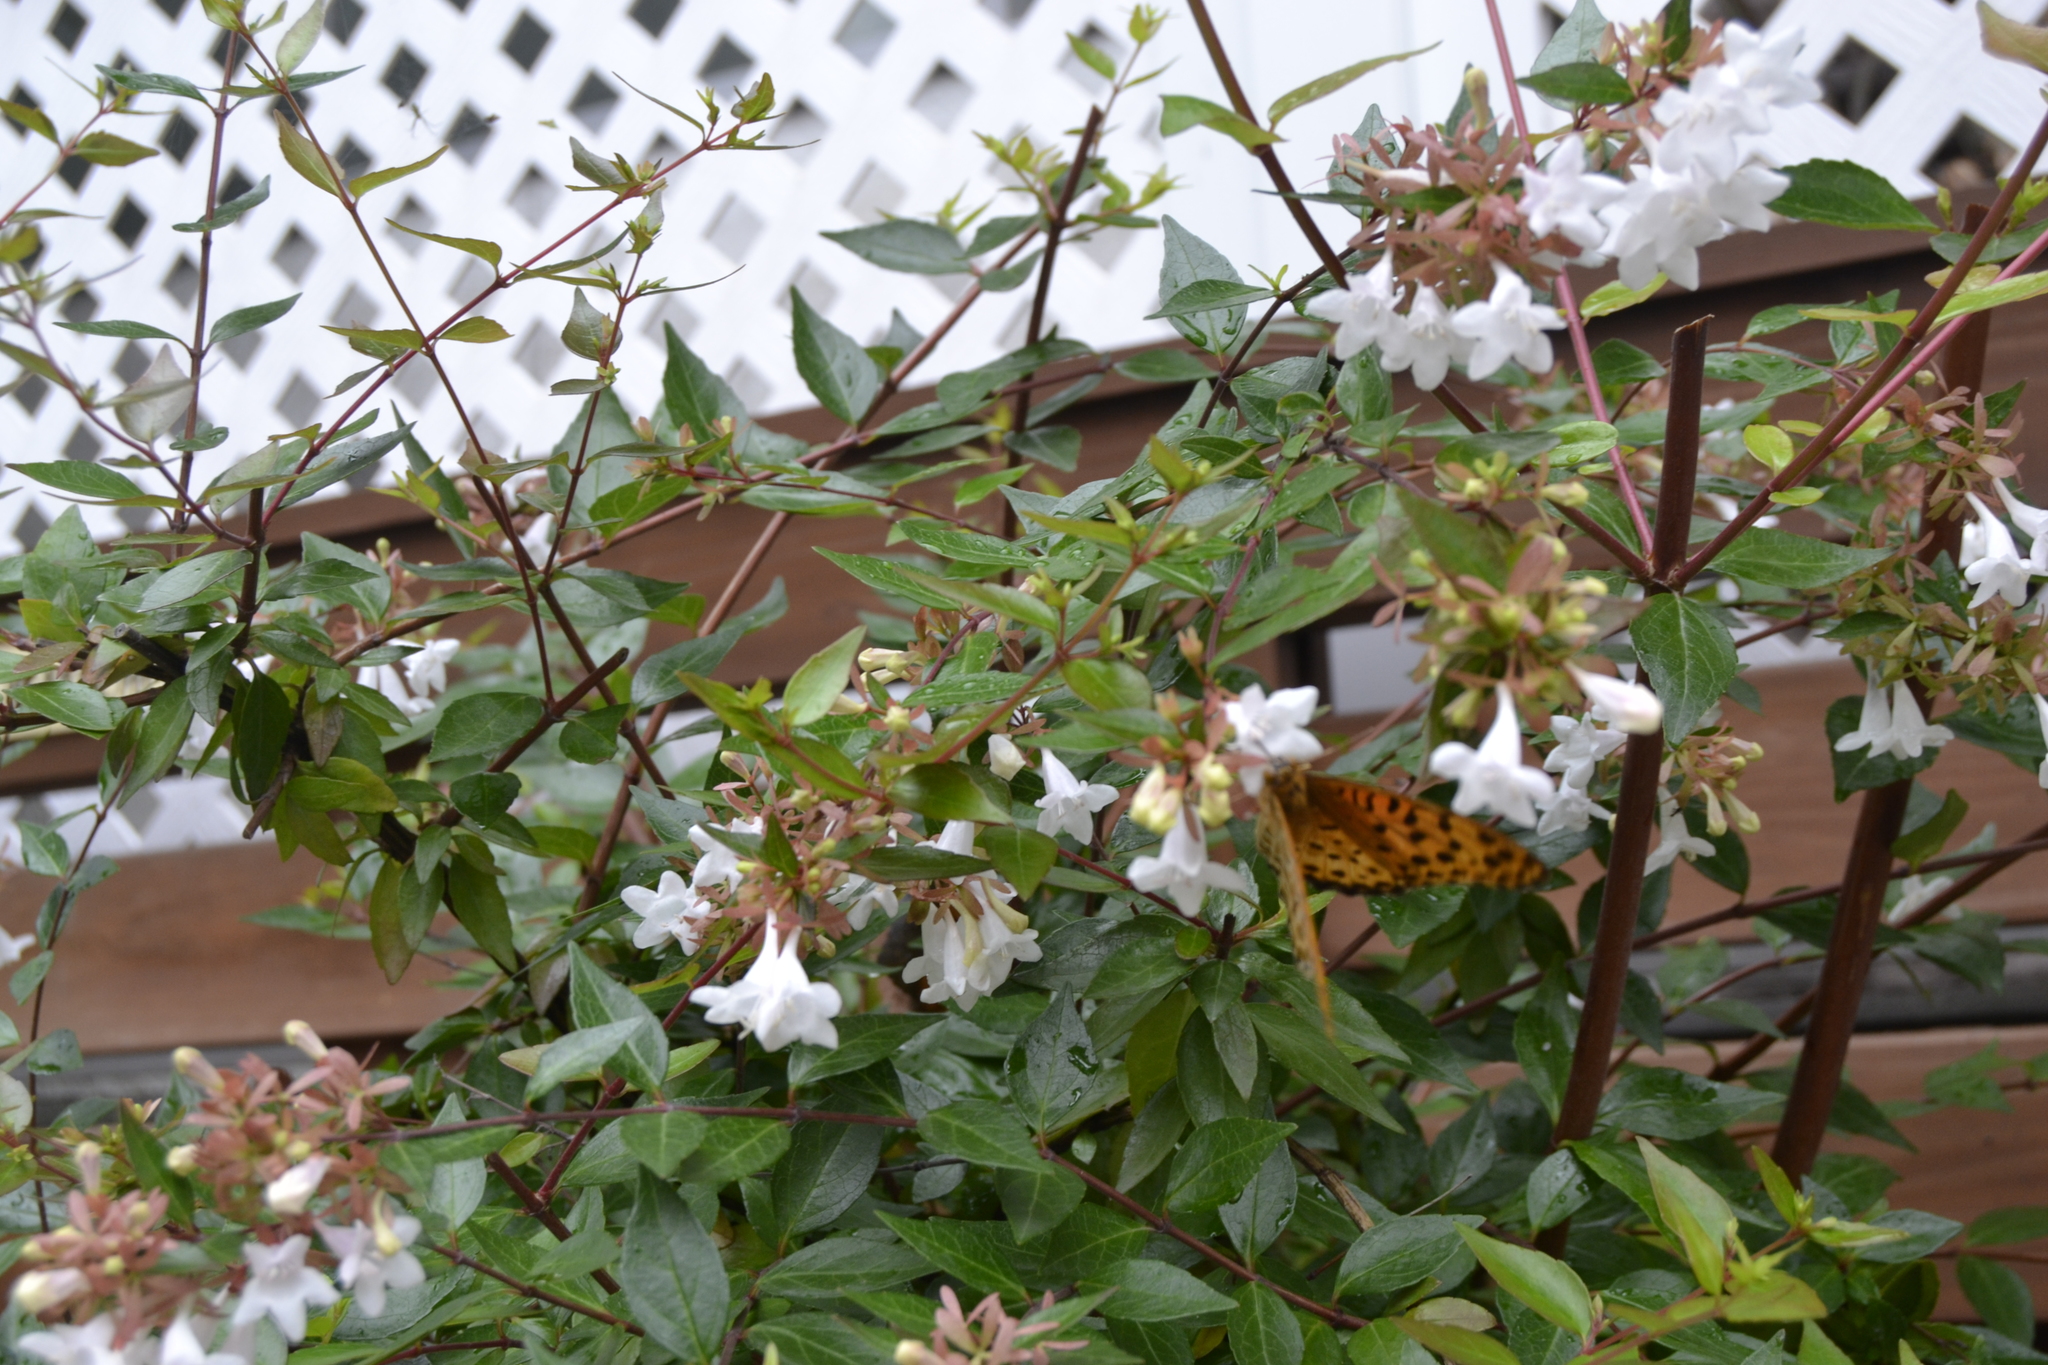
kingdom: Animalia
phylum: Arthropoda
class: Insecta
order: Lepidoptera
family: Nymphalidae
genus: Argynnis
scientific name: Argynnis hyperbius
